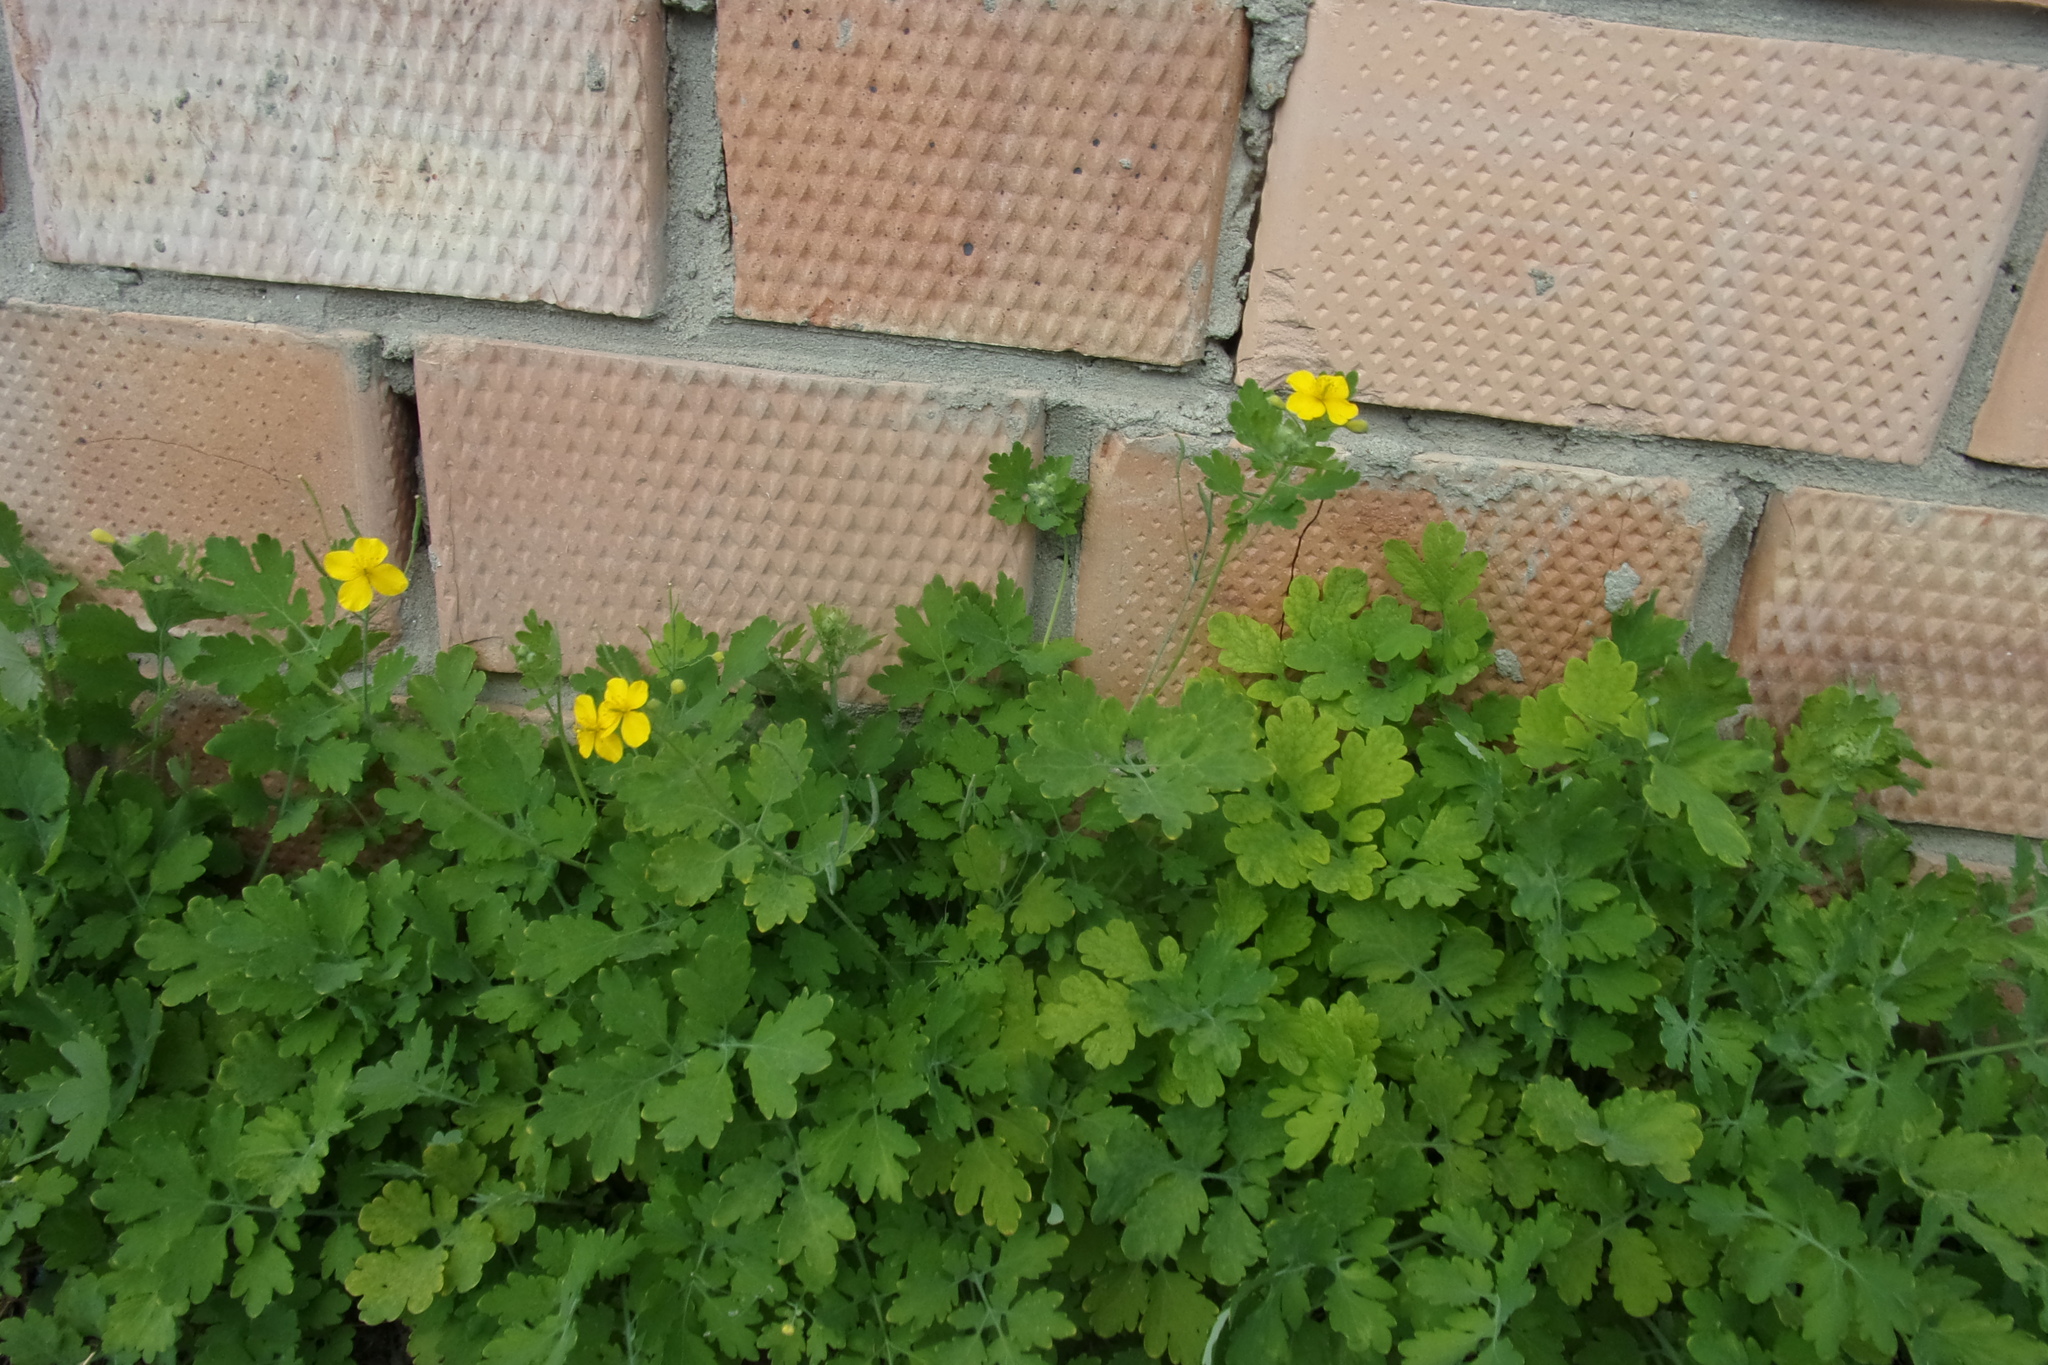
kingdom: Plantae
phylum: Tracheophyta
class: Magnoliopsida
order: Ranunculales
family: Papaveraceae
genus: Chelidonium
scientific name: Chelidonium majus
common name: Greater celandine
